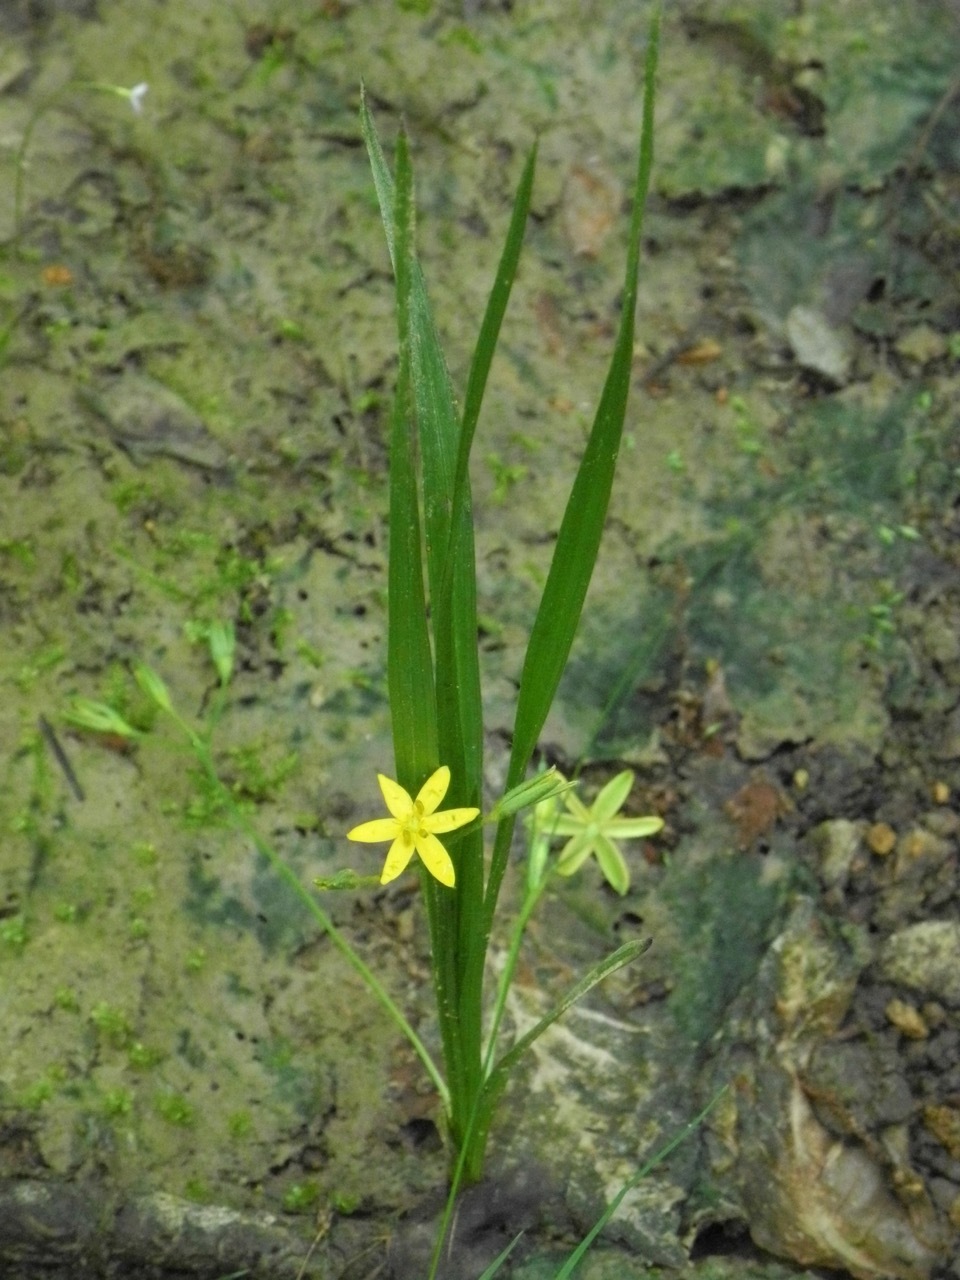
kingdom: Plantae
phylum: Tracheophyta
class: Liliopsida
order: Asparagales
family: Hypoxidaceae
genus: Hypoxis
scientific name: Hypoxis hirsuta
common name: Common goldstar
